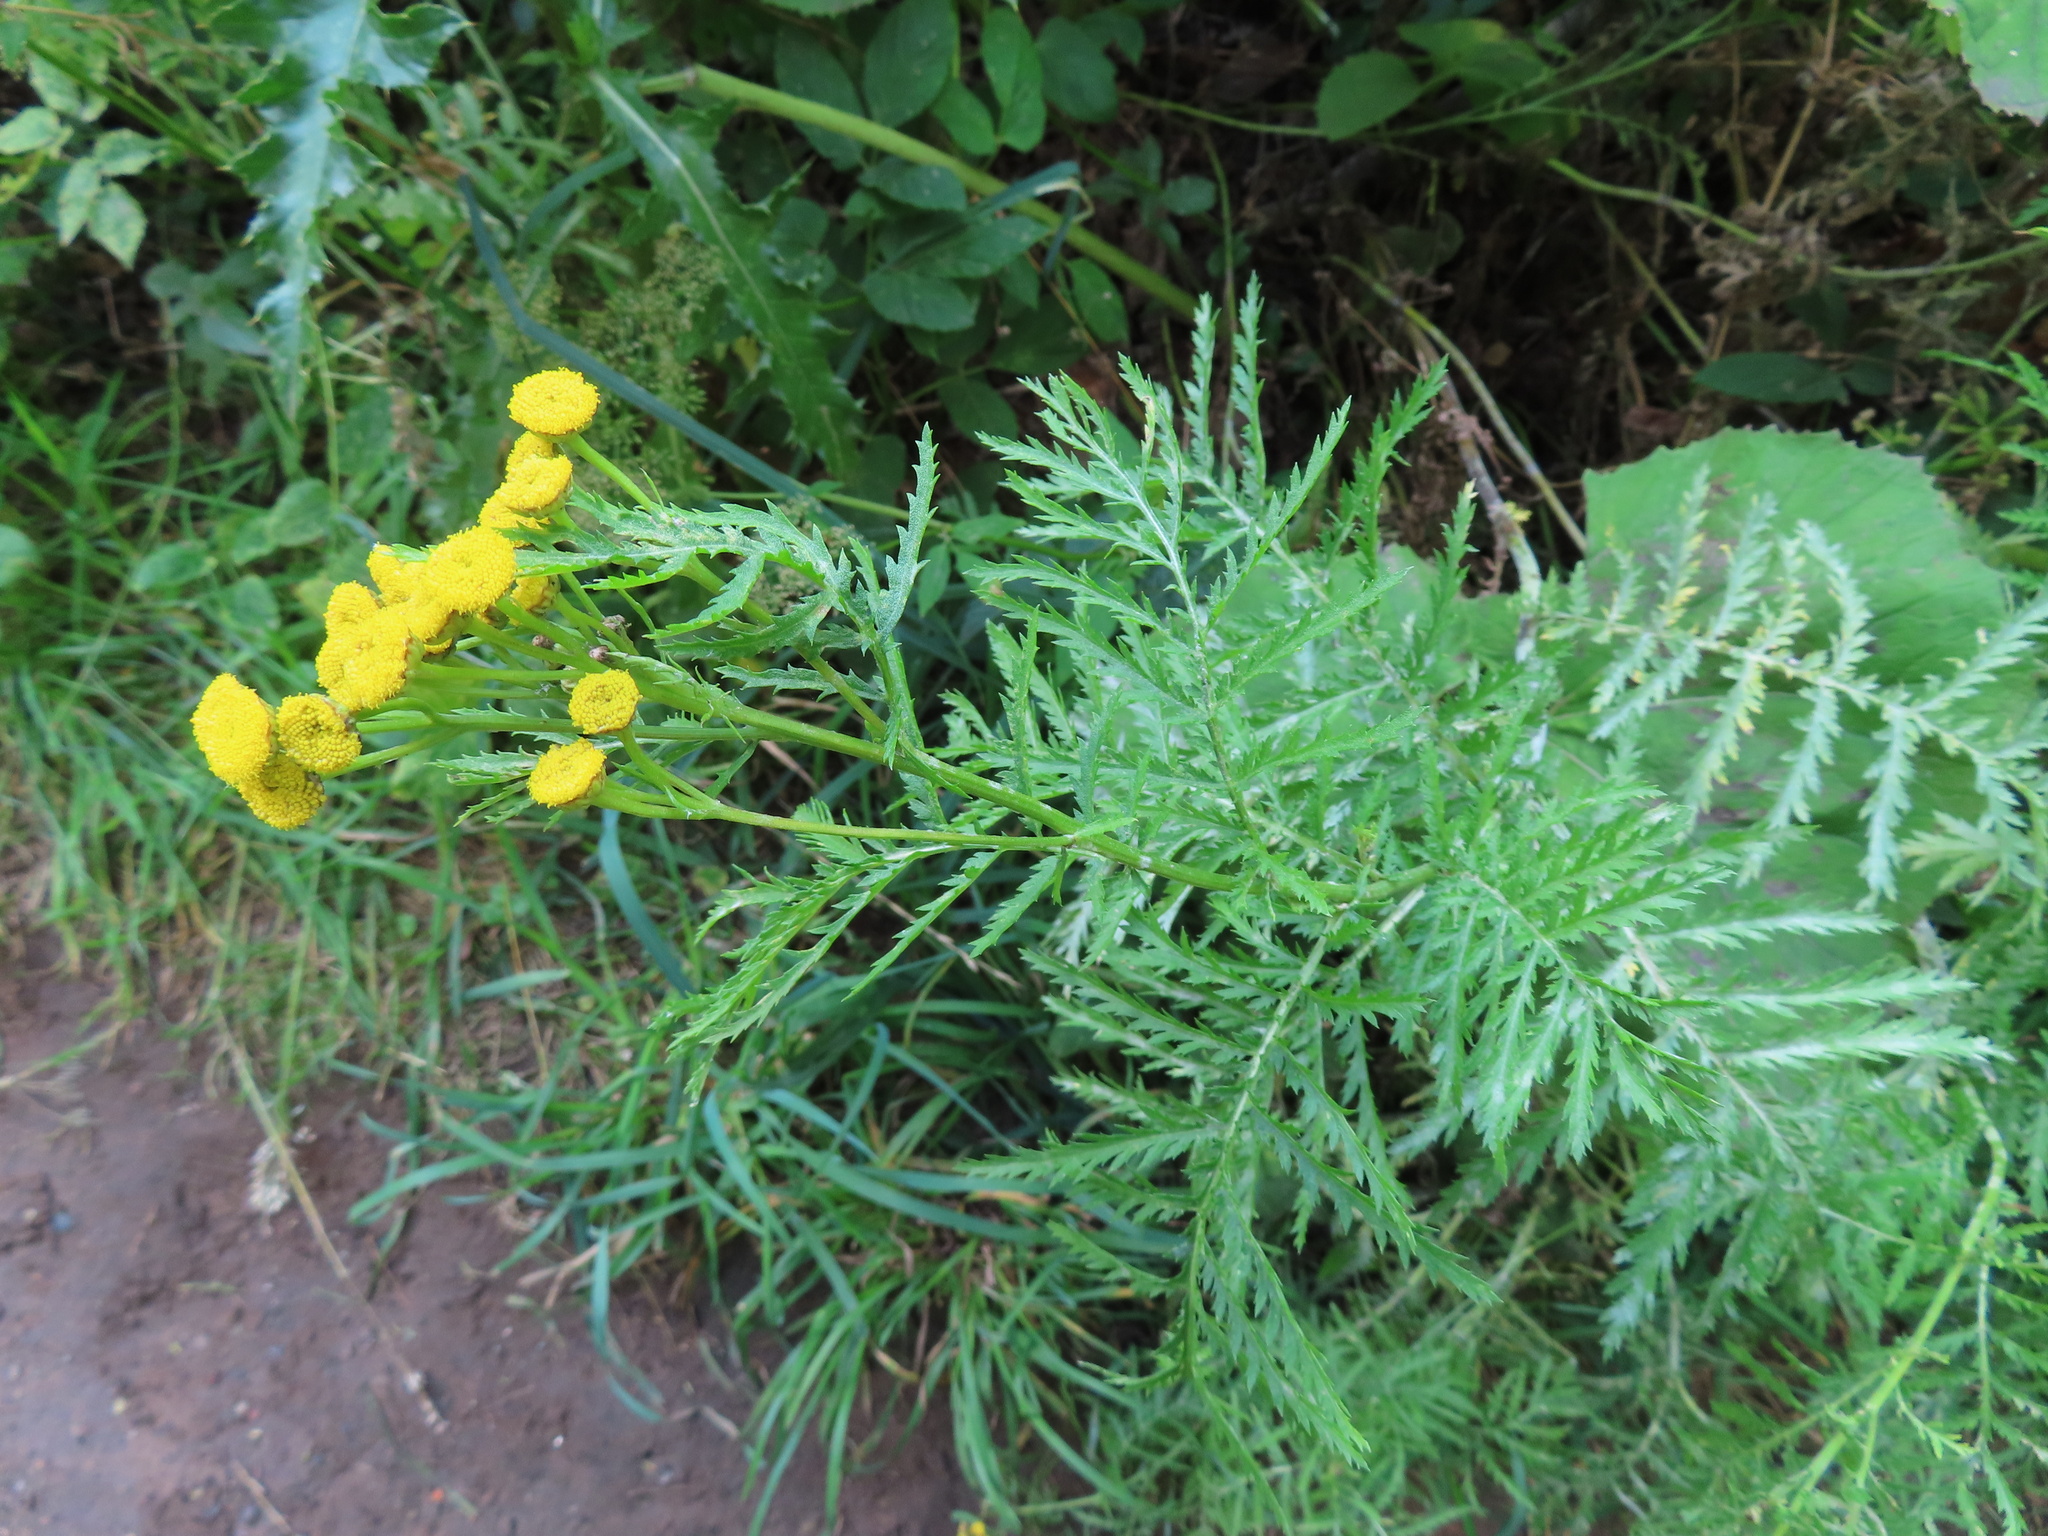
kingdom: Plantae
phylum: Tracheophyta
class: Magnoliopsida
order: Asterales
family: Asteraceae
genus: Tanacetum
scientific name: Tanacetum vulgare
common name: Common tansy
